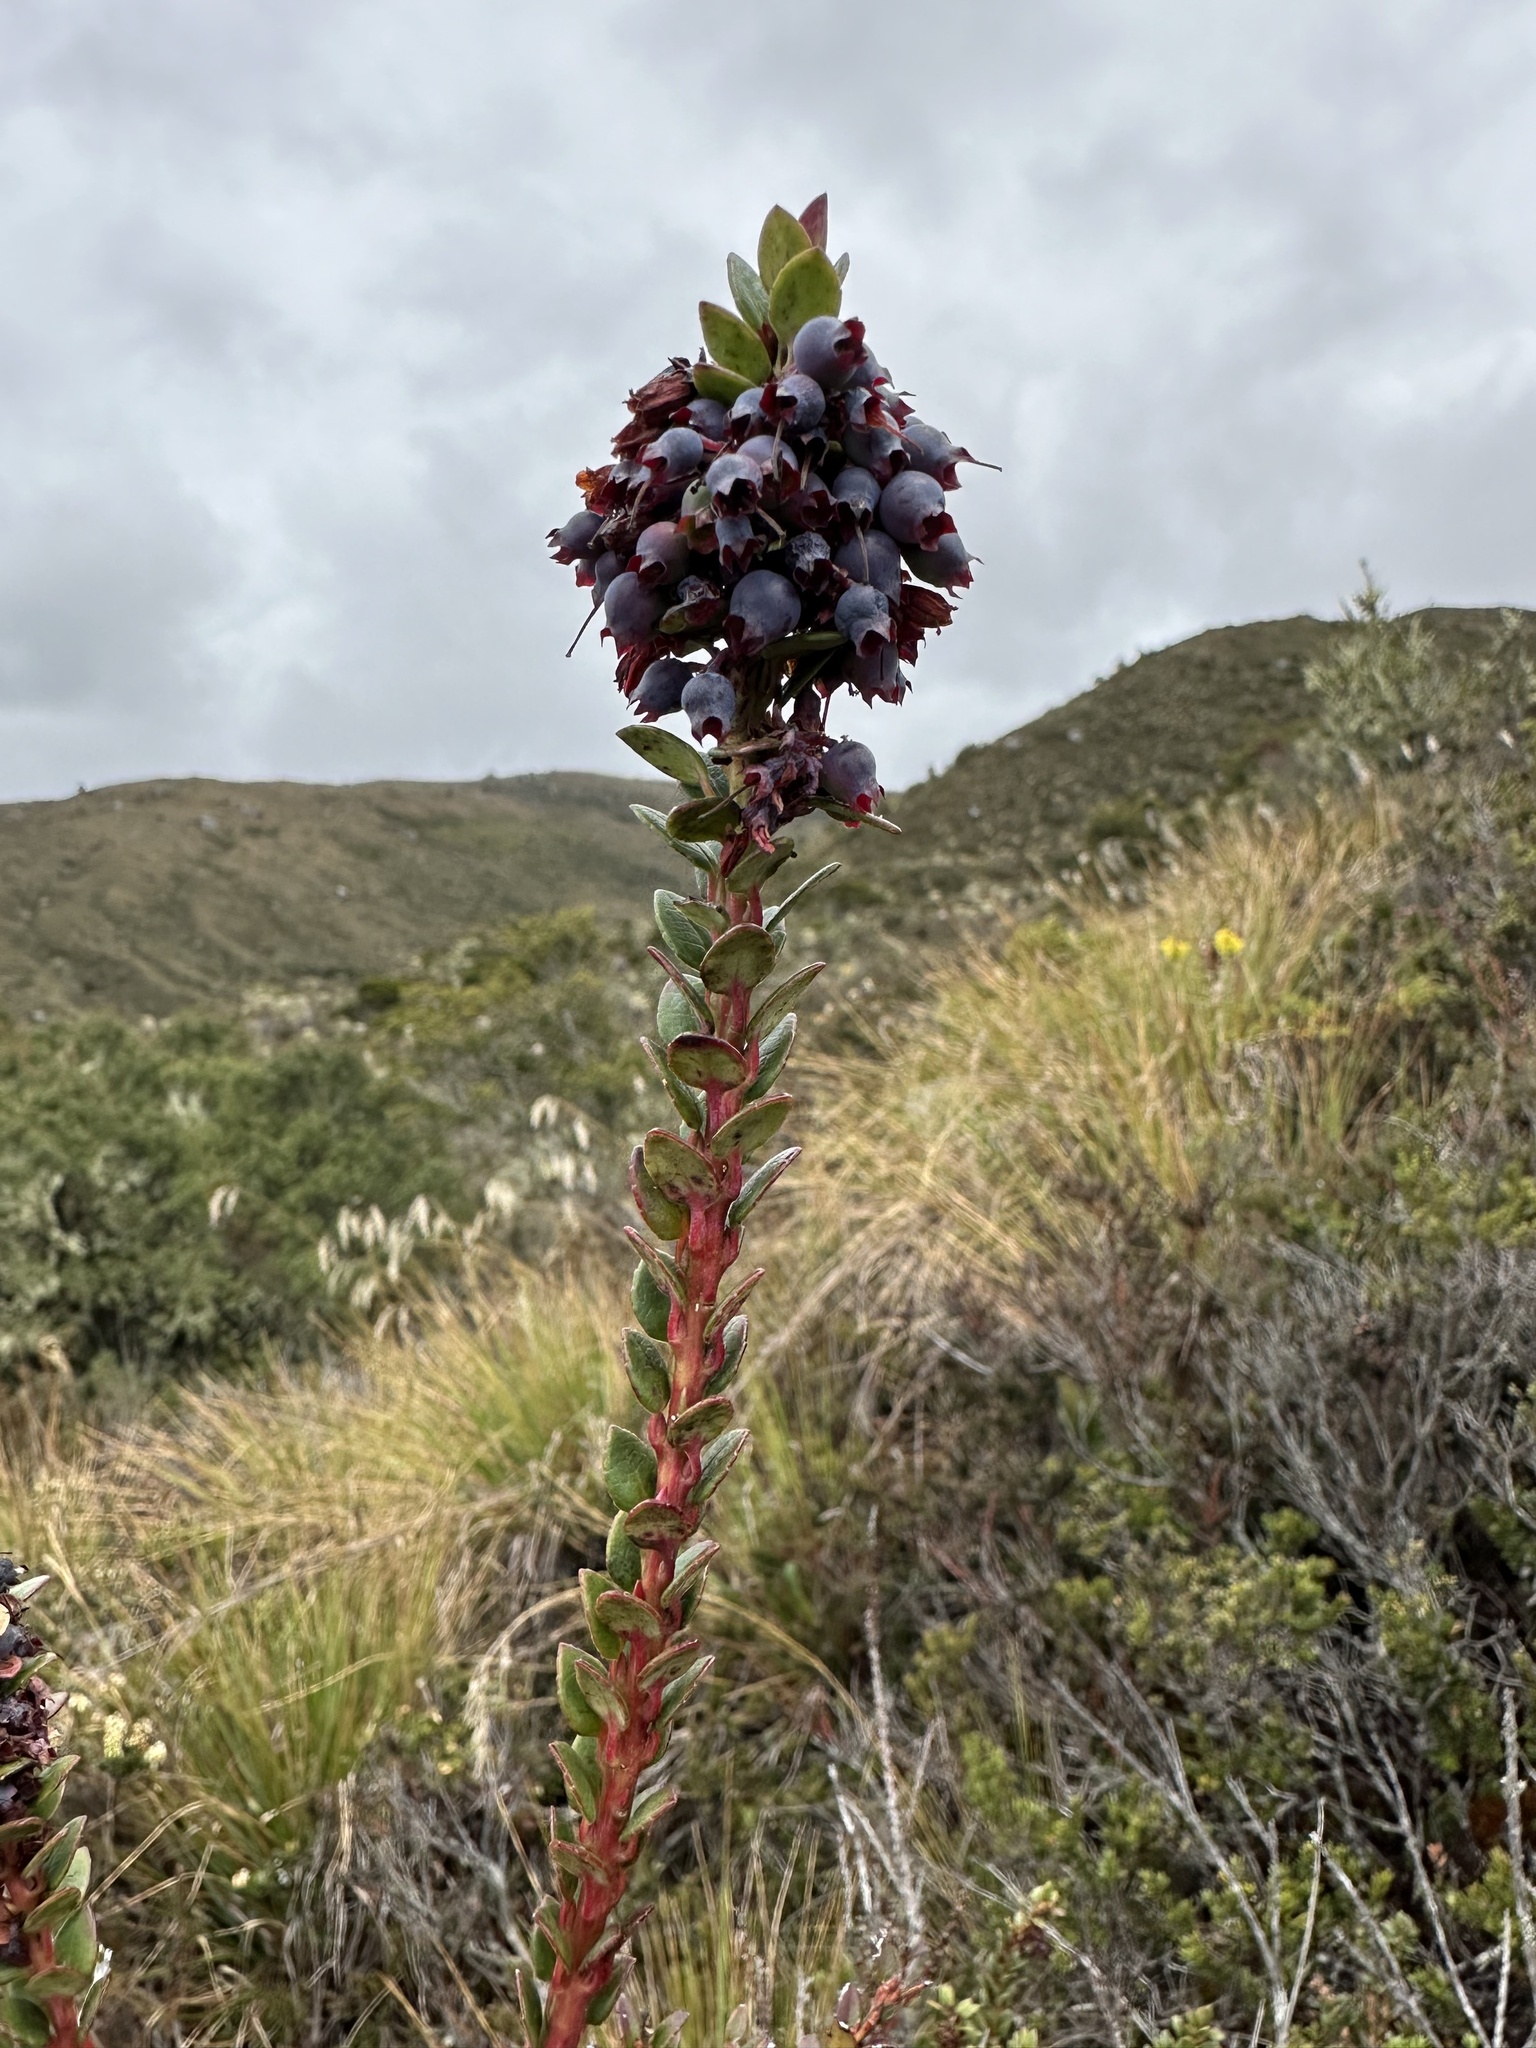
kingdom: Plantae
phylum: Tracheophyta
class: Magnoliopsida
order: Ericales
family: Ericaceae
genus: Vaccinium
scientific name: Vaccinium floribundum
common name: Colombian blueberry
